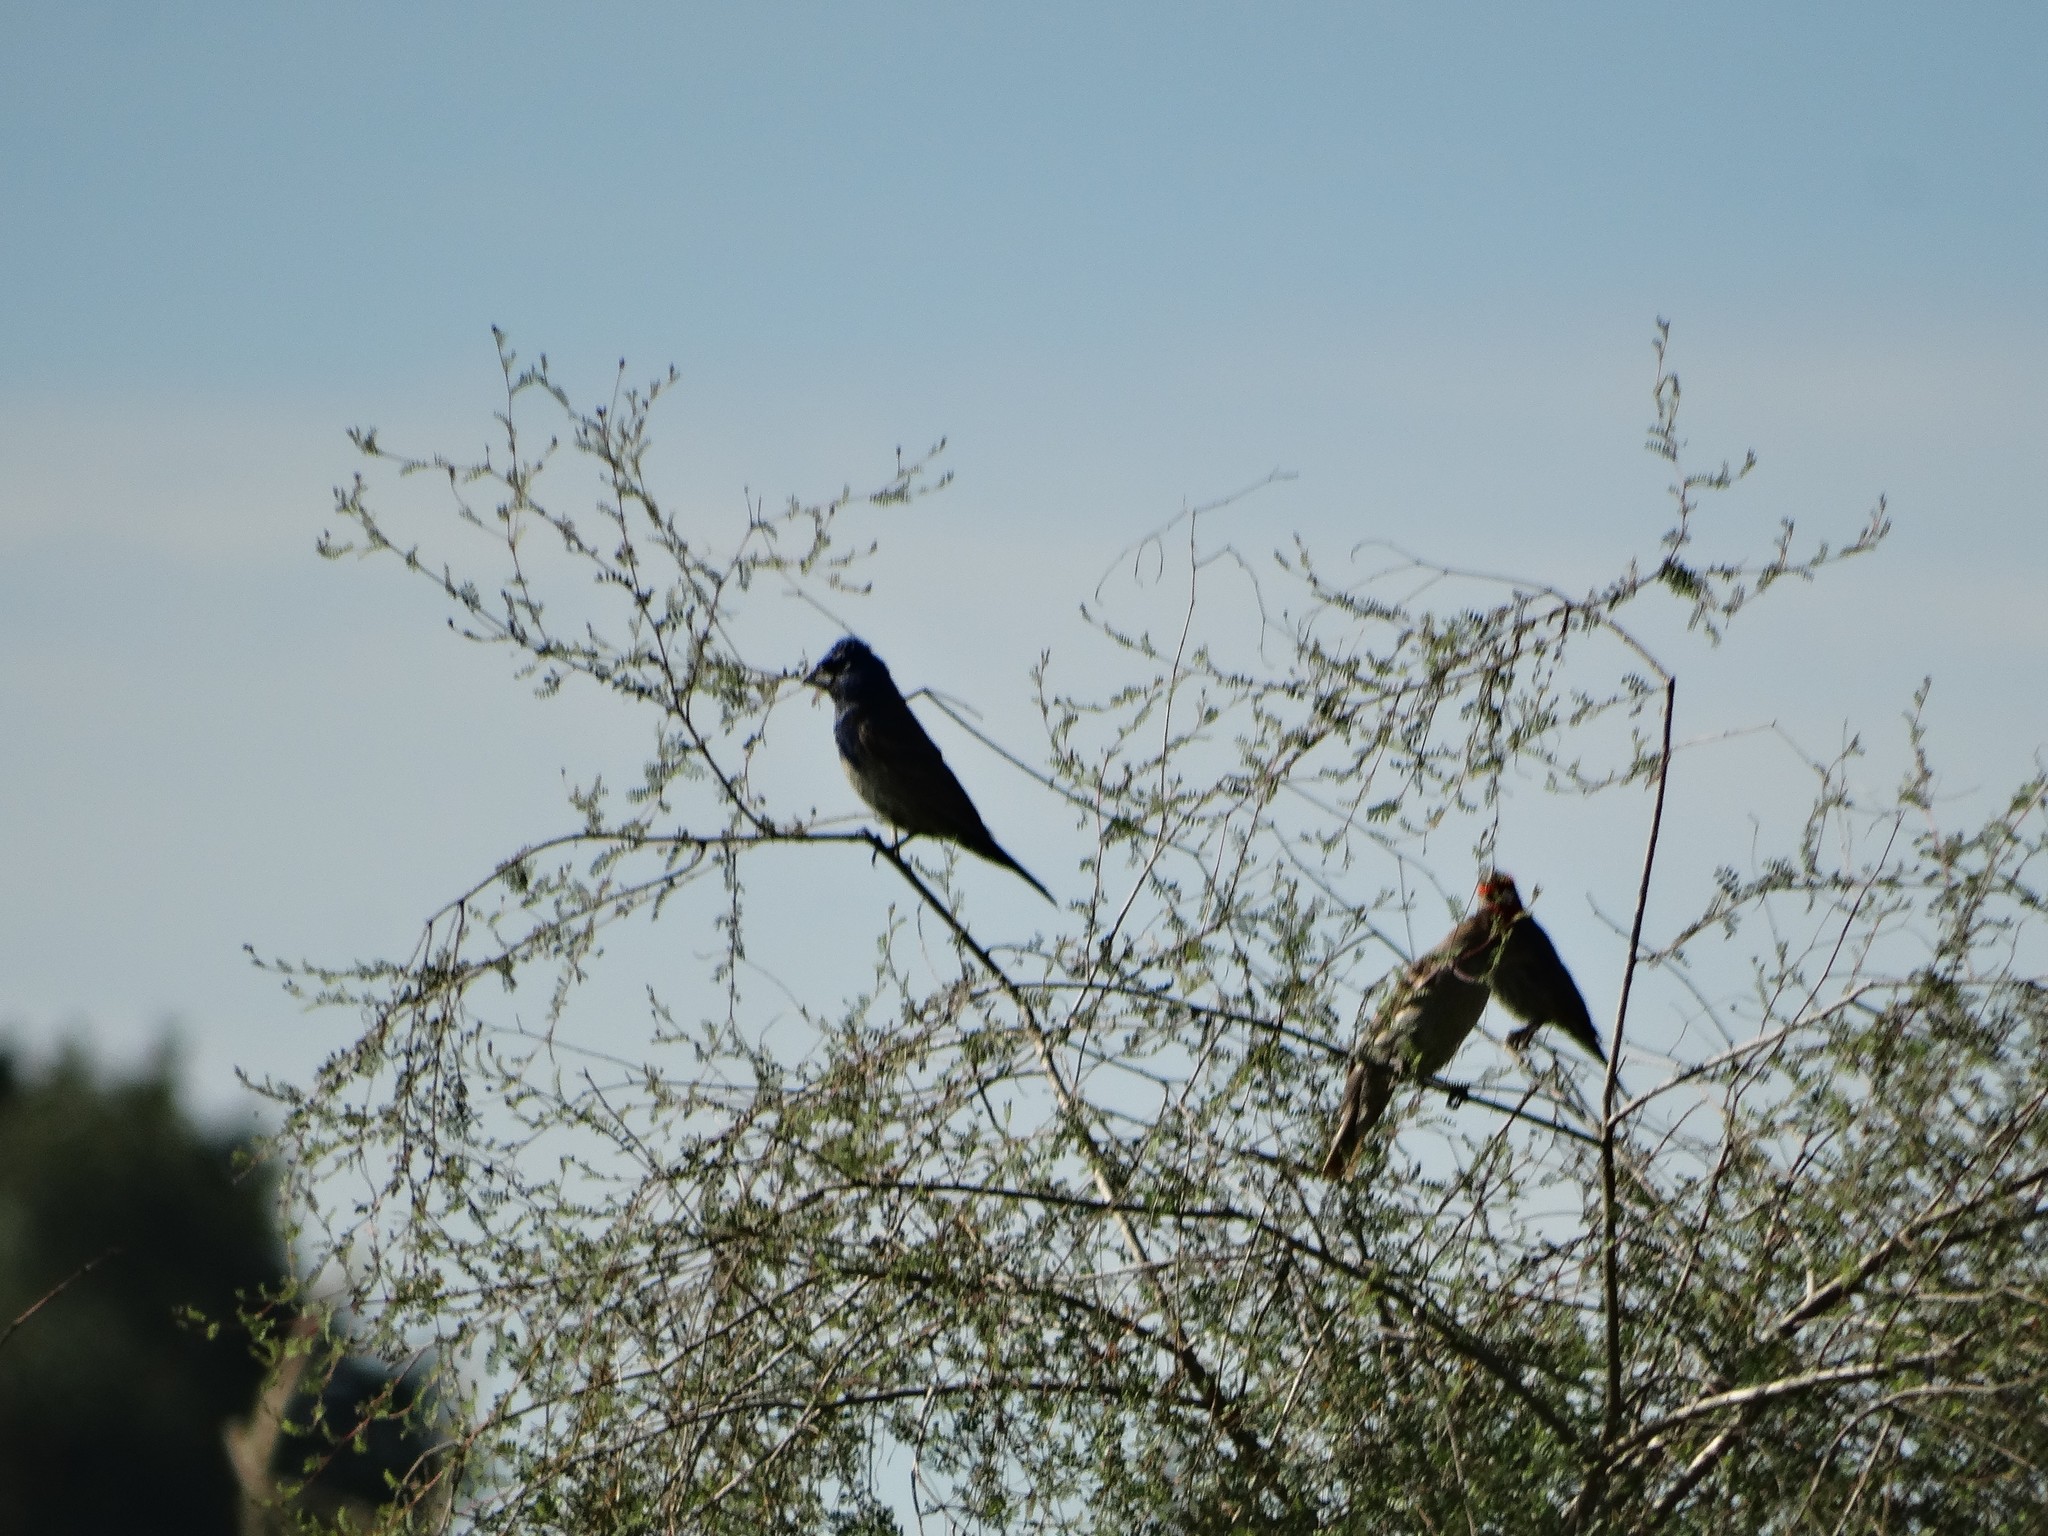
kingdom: Animalia
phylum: Chordata
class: Aves
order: Passeriformes
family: Cardinalidae
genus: Passerina
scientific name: Passerina caerulea
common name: Blue grosbeak
